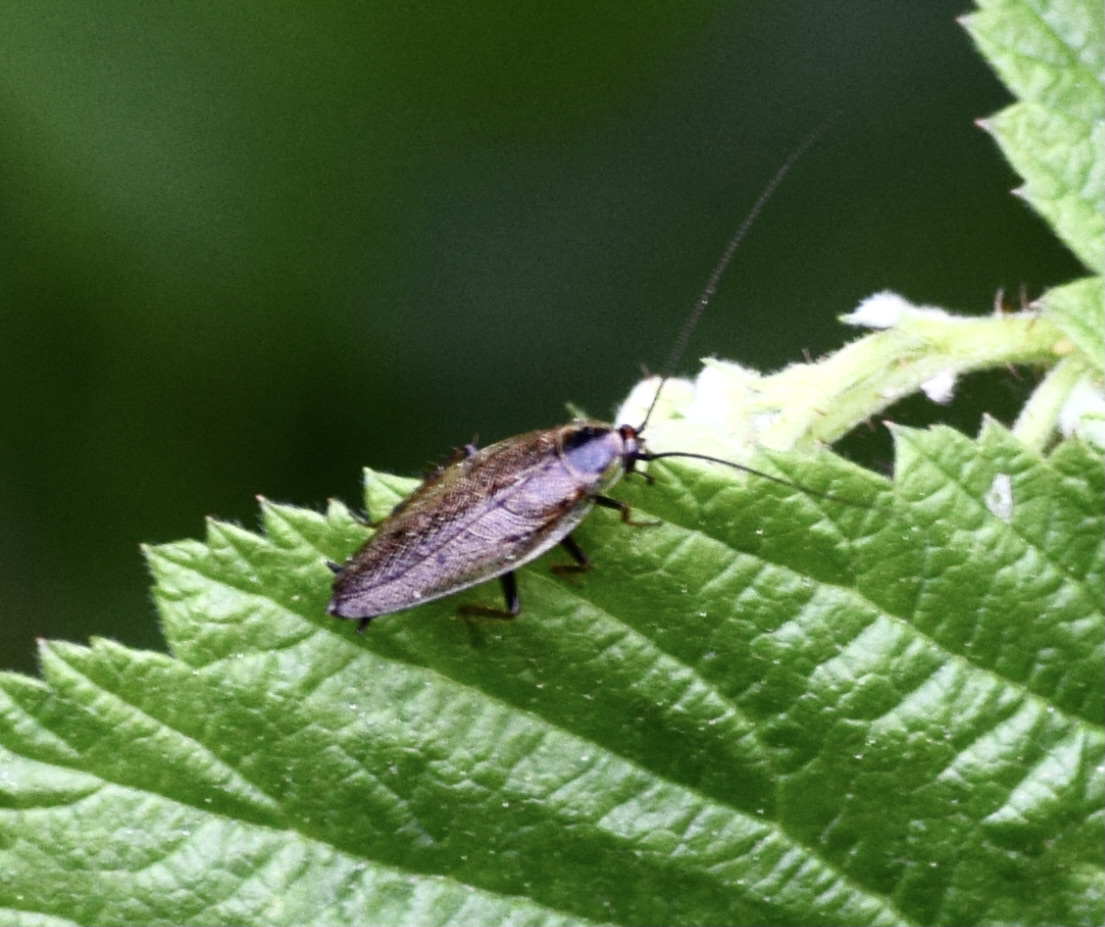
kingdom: Animalia
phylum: Arthropoda
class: Insecta
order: Blattodea
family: Ectobiidae
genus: Ectobius
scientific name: Ectobius lapponicus
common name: Dusky cockroach
